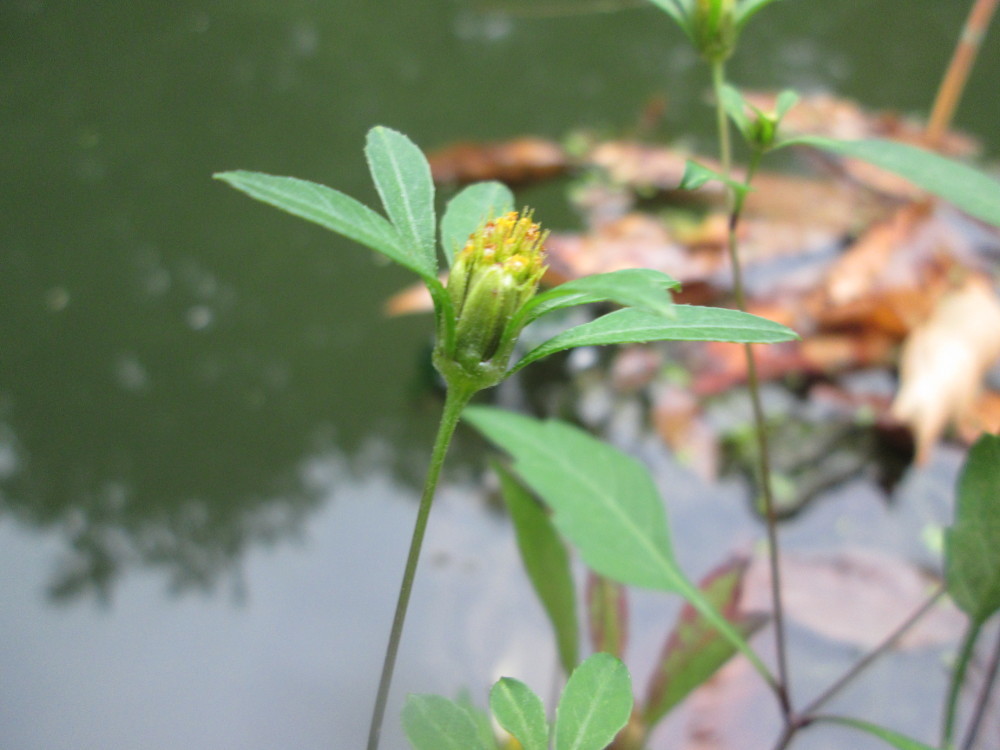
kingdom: Plantae
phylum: Tracheophyta
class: Magnoliopsida
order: Asterales
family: Asteraceae
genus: Bidens
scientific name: Bidens frondosa
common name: Beggarticks
